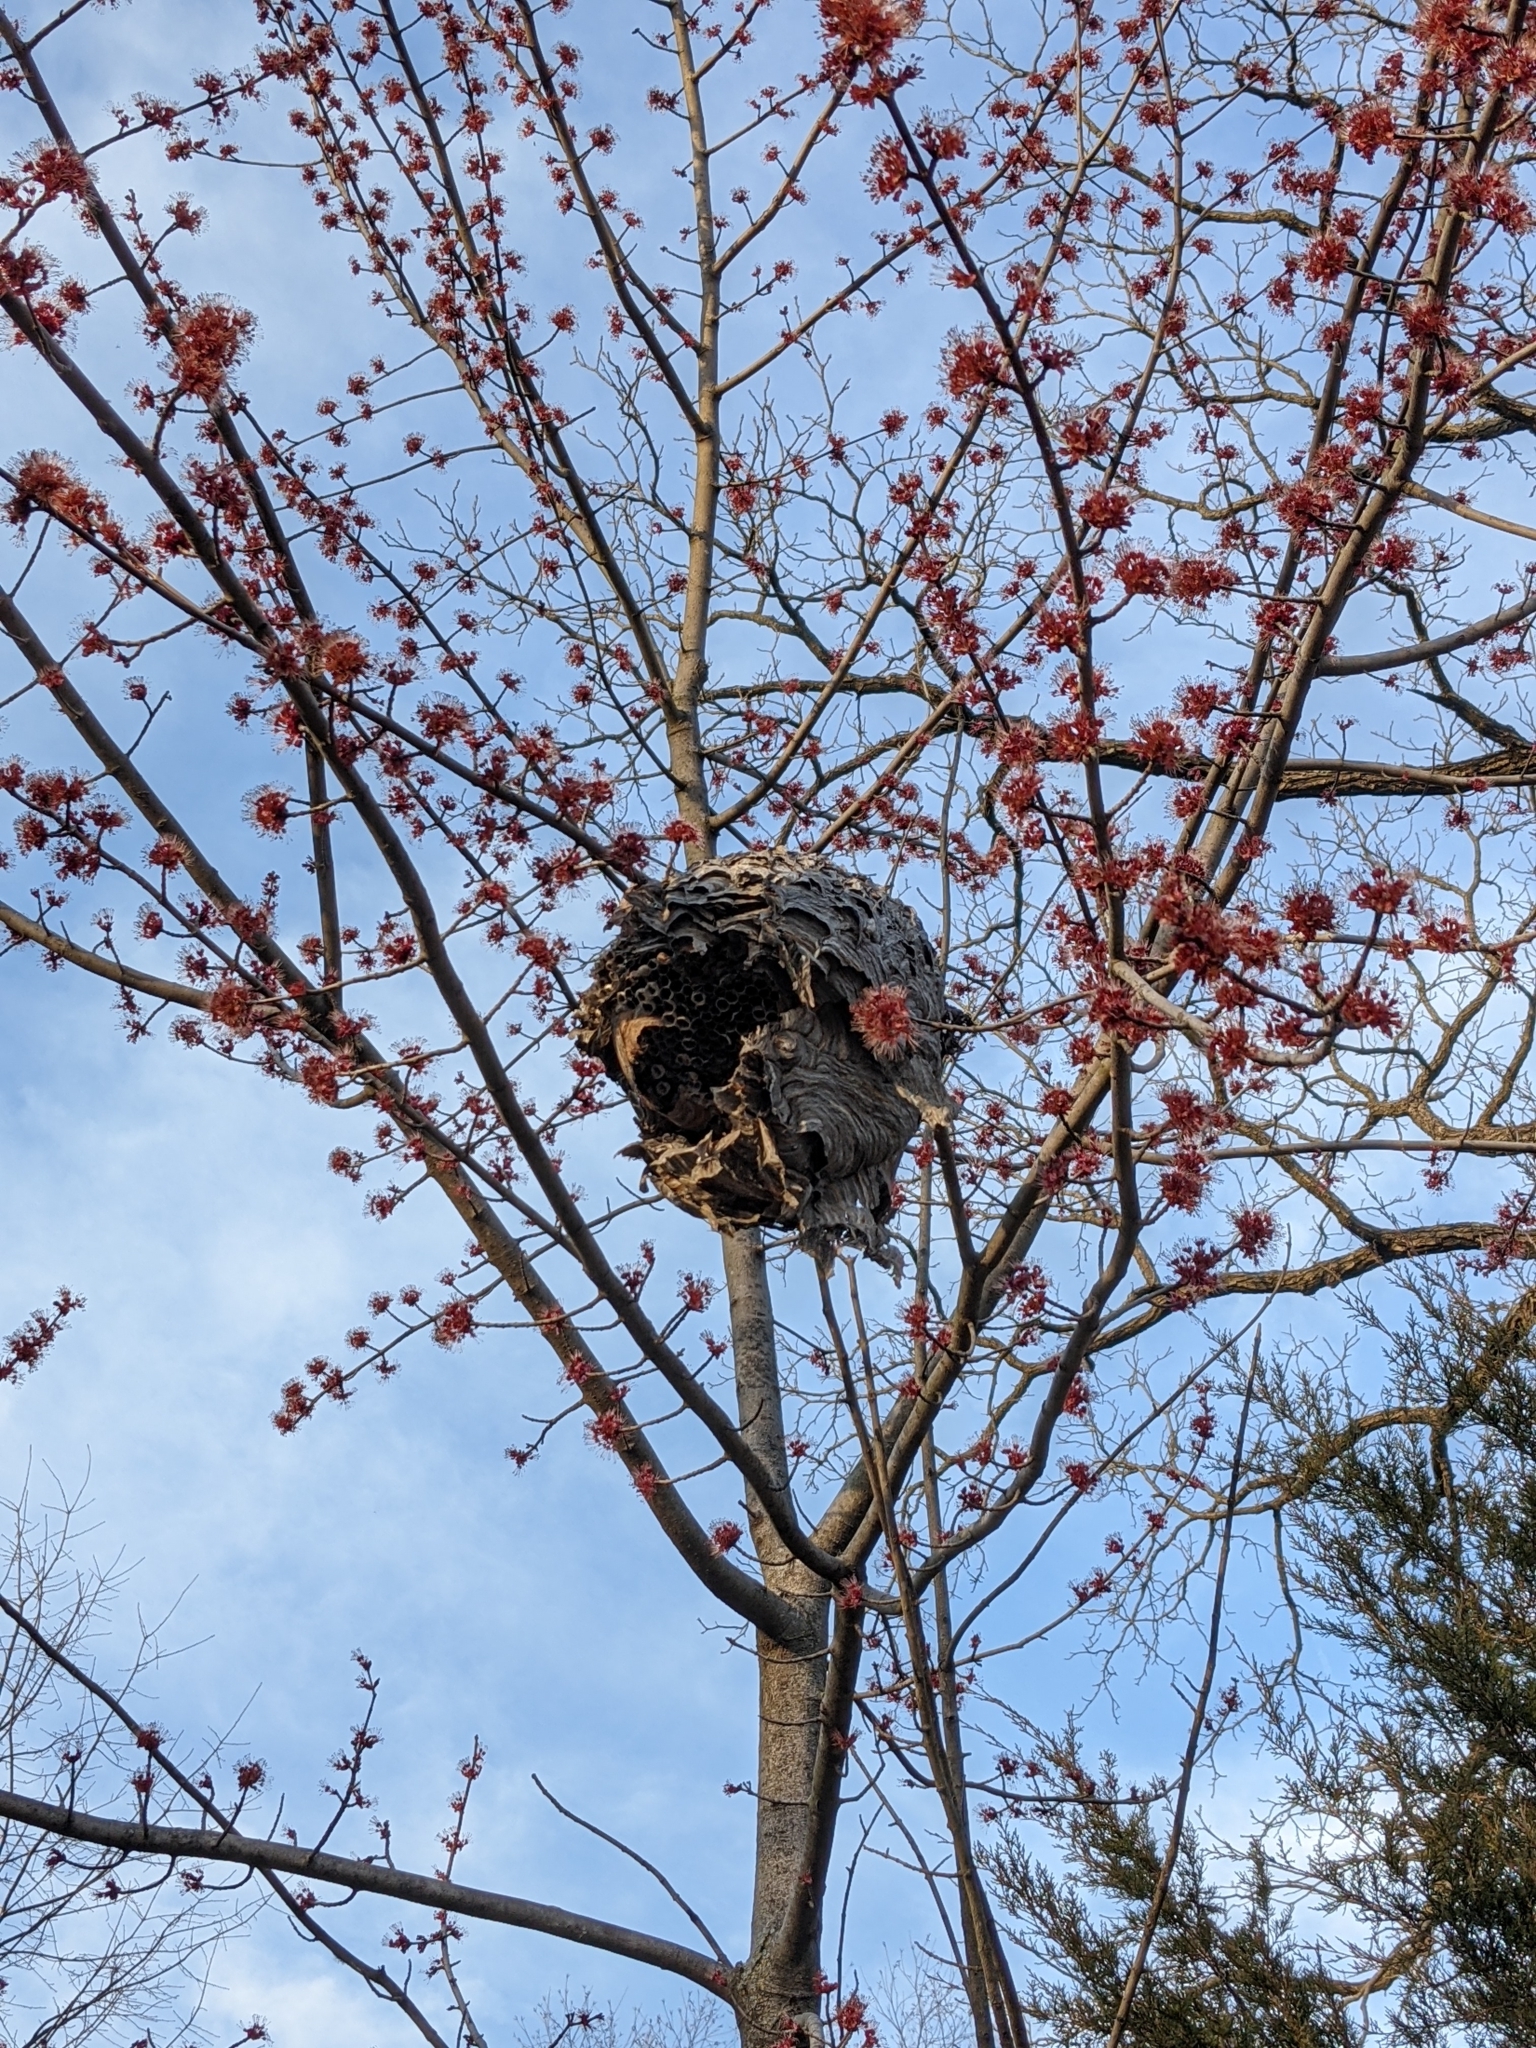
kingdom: Animalia
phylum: Arthropoda
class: Insecta
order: Hymenoptera
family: Vespidae
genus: Dolichovespula
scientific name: Dolichovespula maculata
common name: Bald-faced hornet
